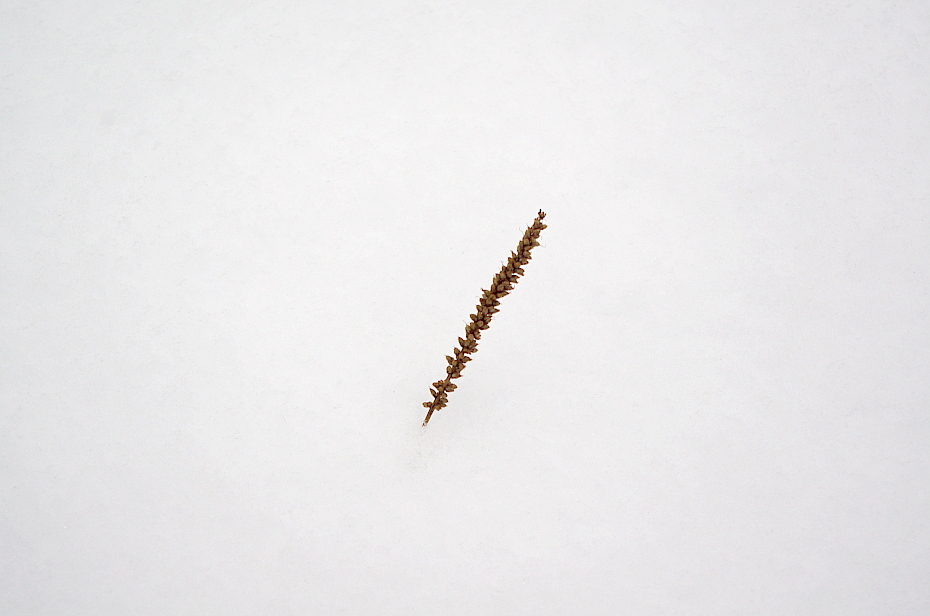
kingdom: Plantae
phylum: Tracheophyta
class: Magnoliopsida
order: Lamiales
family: Plantaginaceae
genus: Plantago
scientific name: Plantago major
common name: Common plantain
